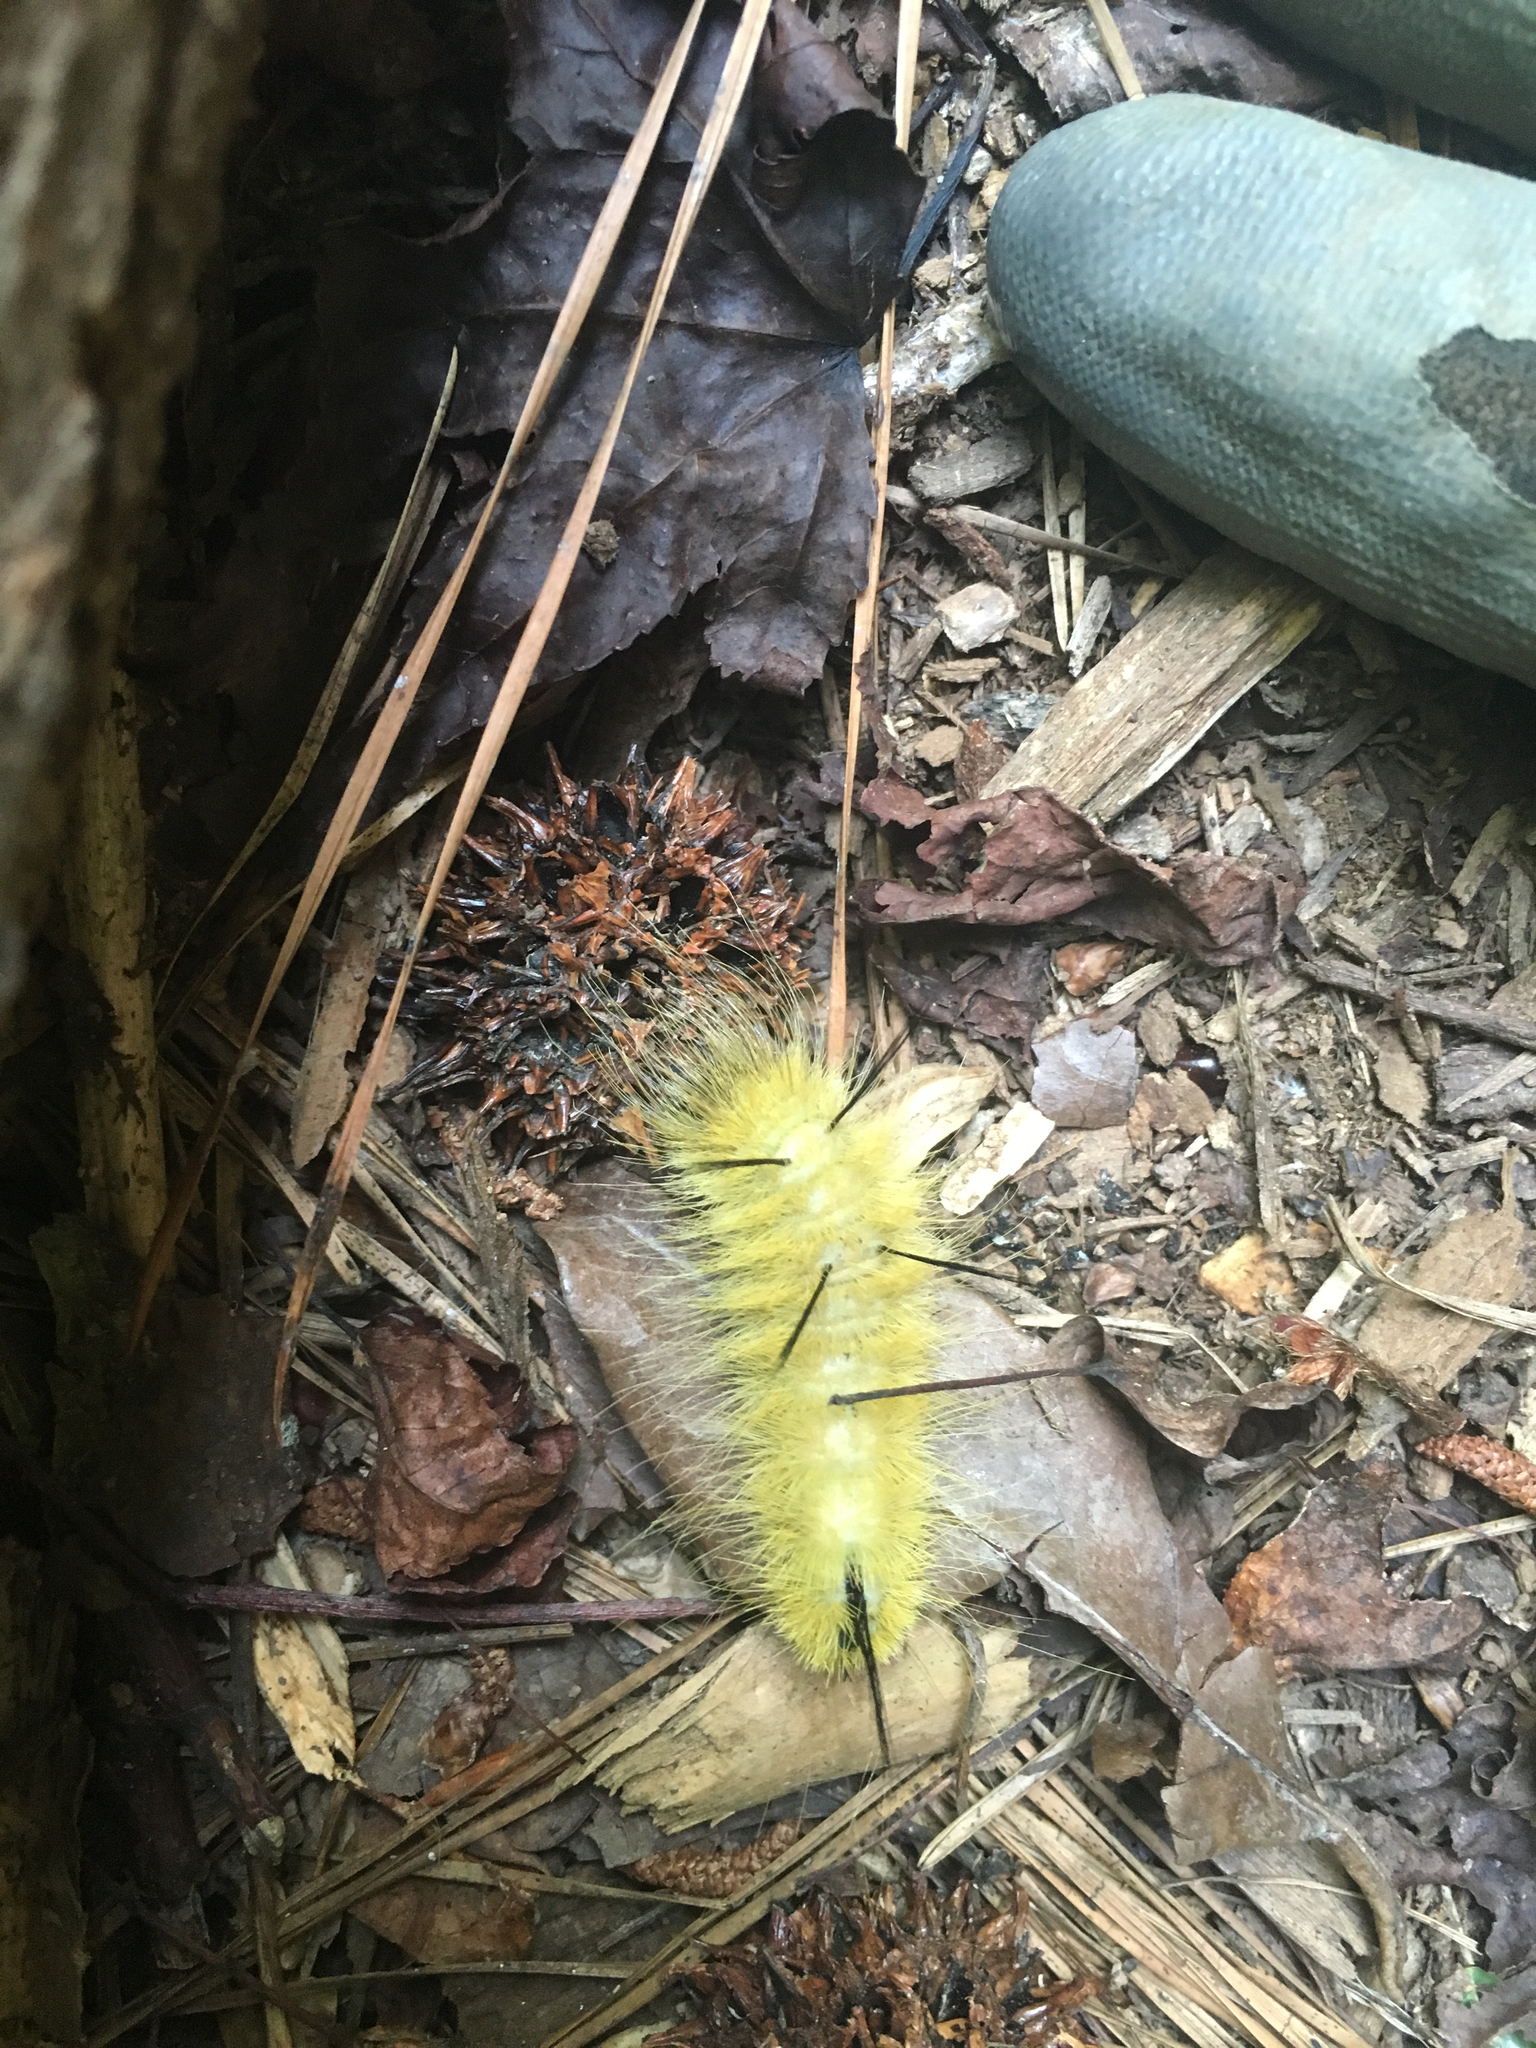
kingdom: Animalia
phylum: Arthropoda
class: Insecta
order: Lepidoptera
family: Erebidae
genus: Halysidota
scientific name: Halysidota tessellaris
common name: Banded tussock moth
